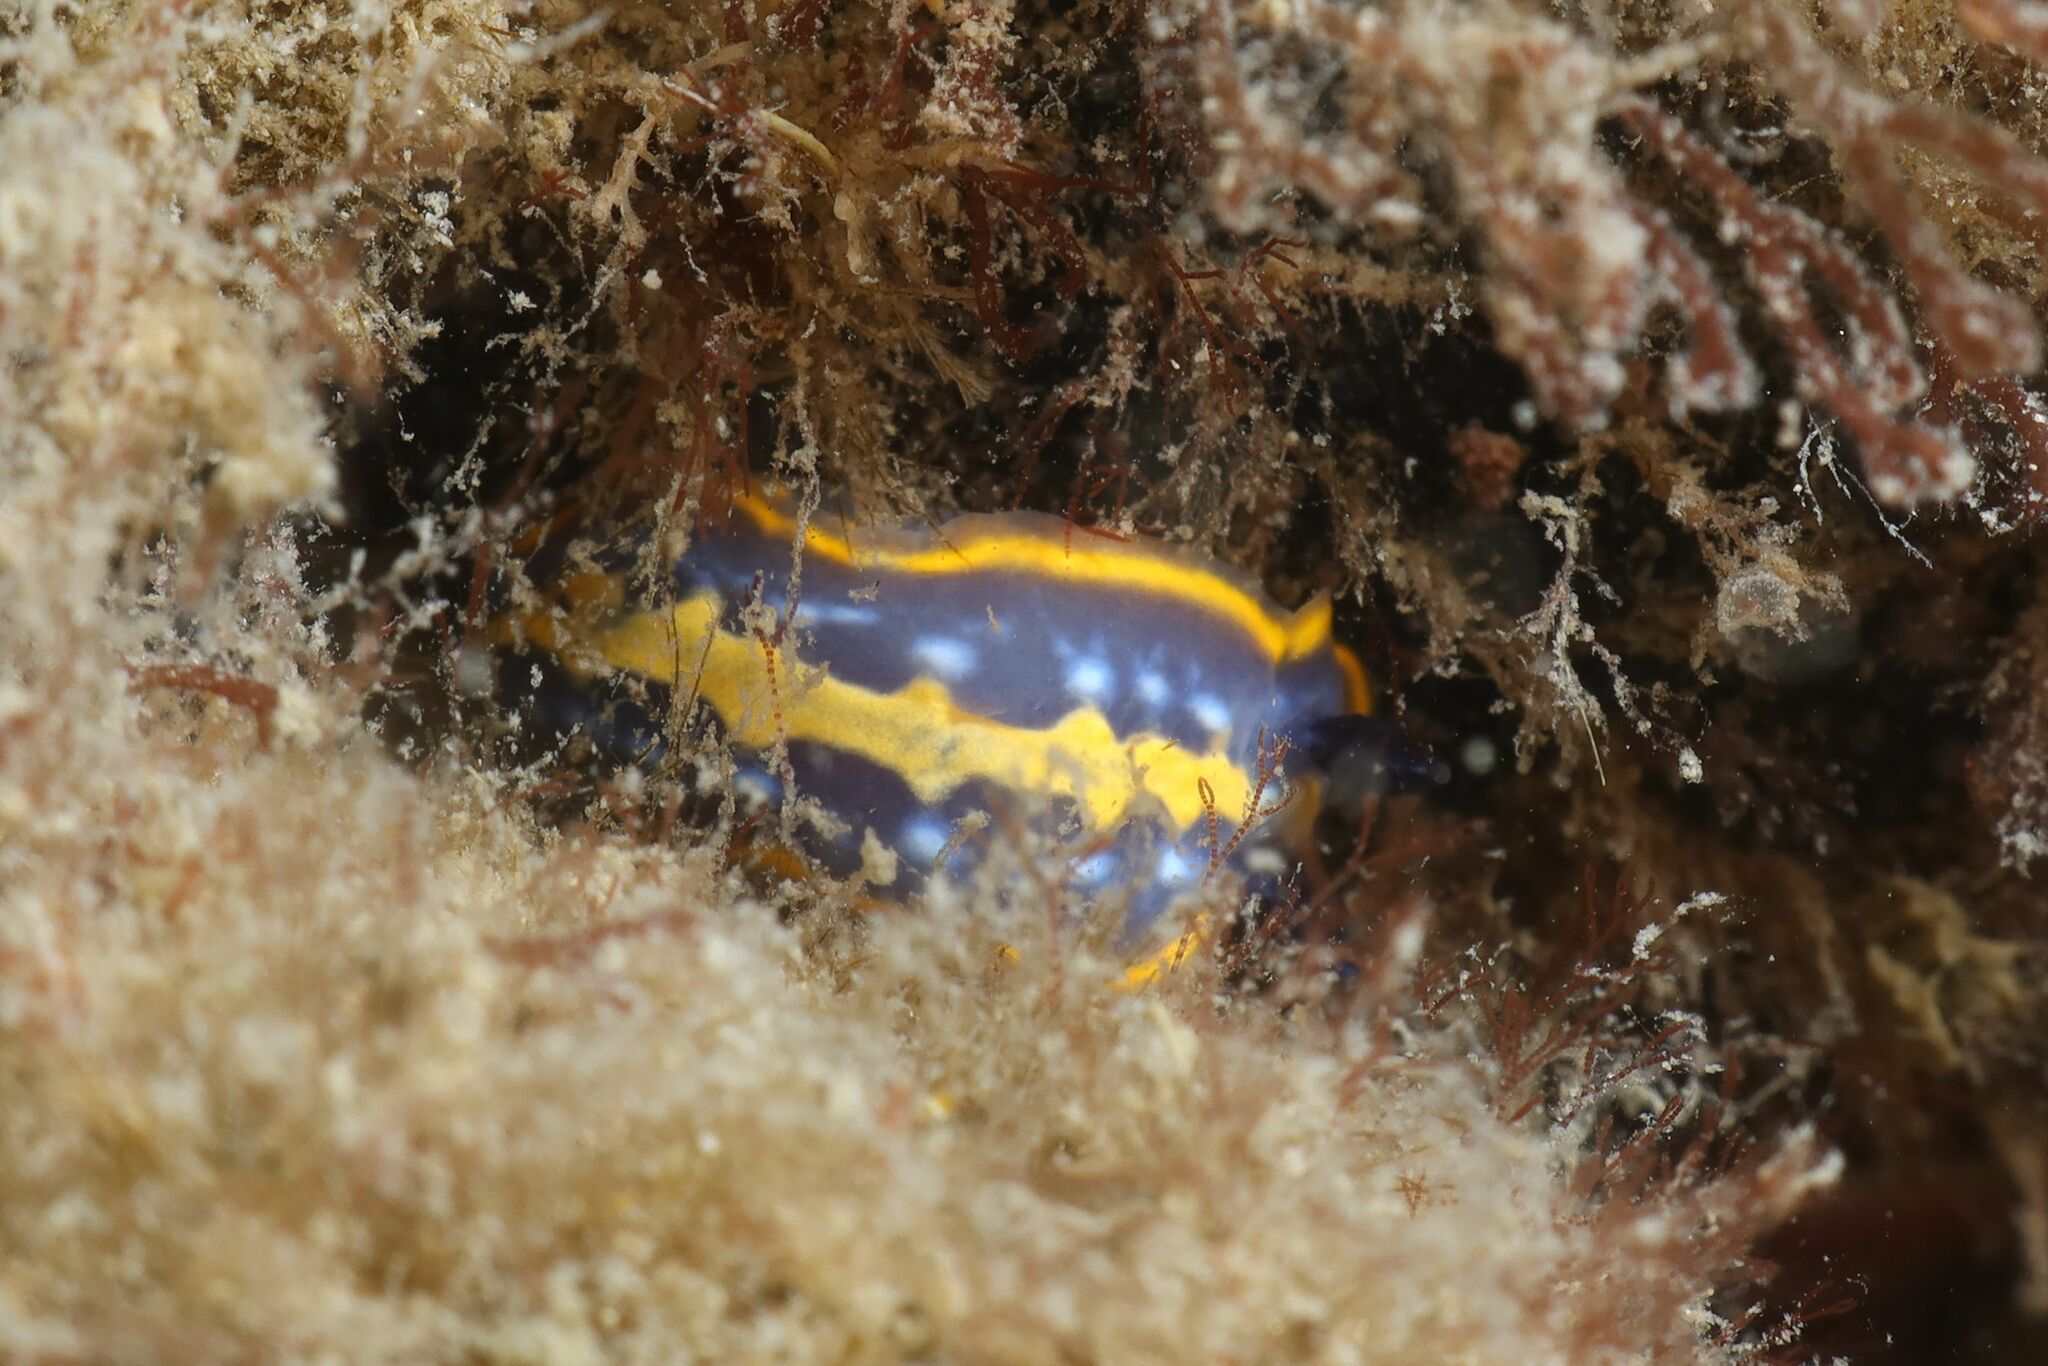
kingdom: Animalia
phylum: Mollusca
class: Gastropoda
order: Nudibranchia
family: Chromodorididae
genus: Felimare
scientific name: Felimare tricolor
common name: Tricolor doris
